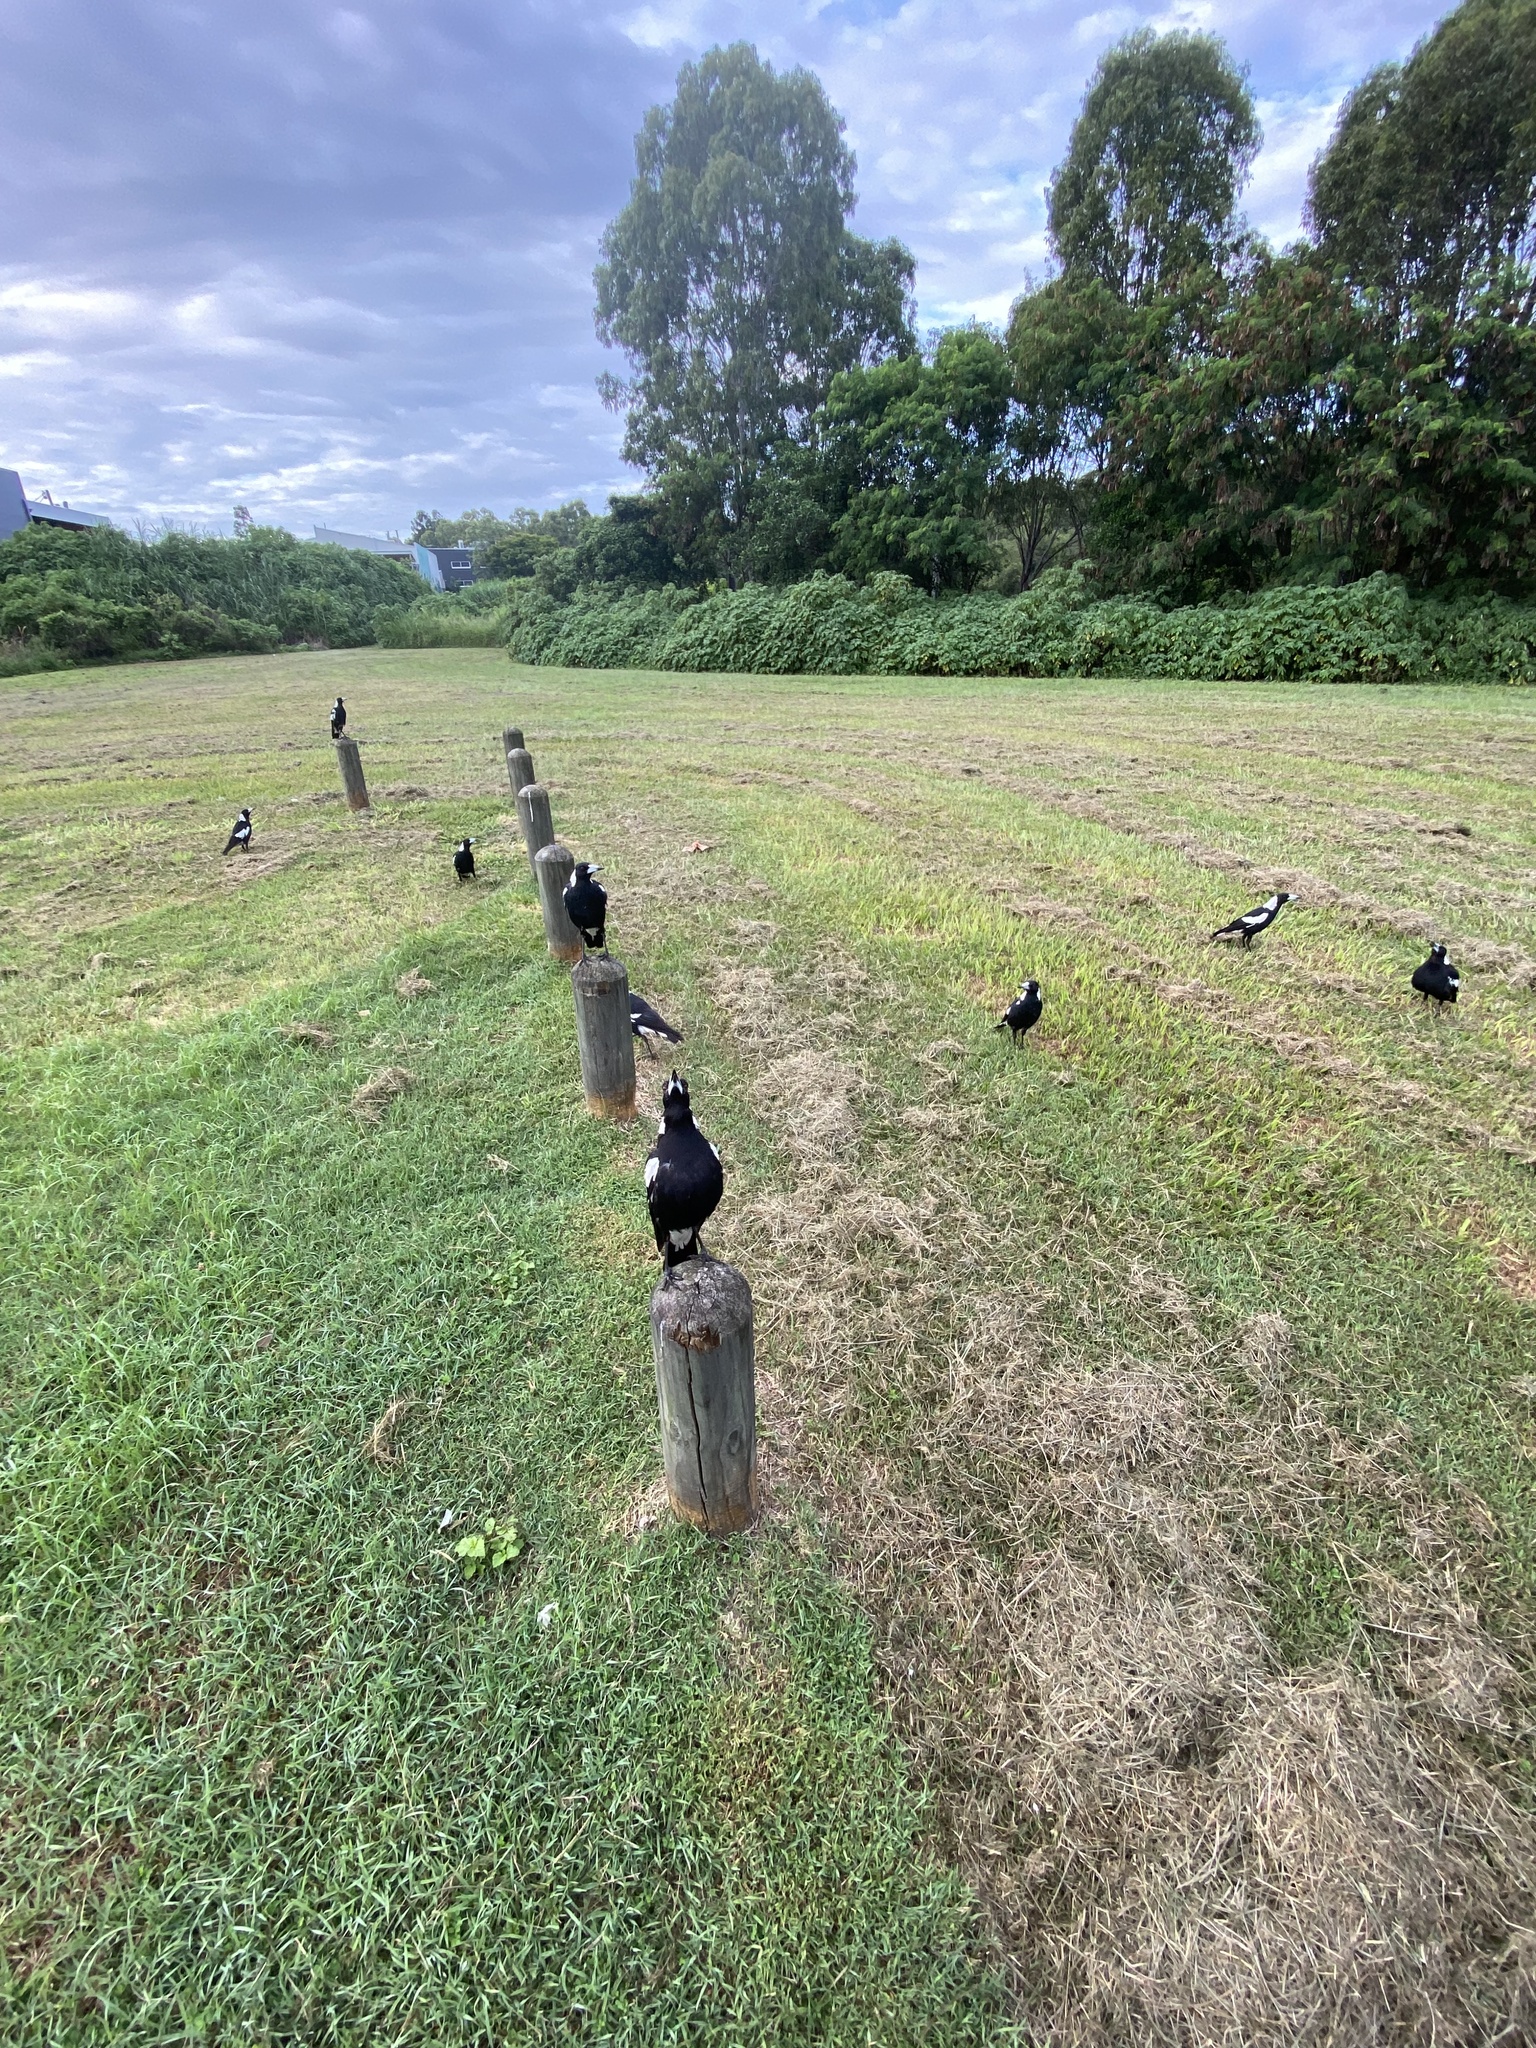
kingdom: Animalia
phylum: Chordata
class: Aves
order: Passeriformes
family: Cracticidae
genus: Gymnorhina
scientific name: Gymnorhina tibicen
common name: Australian magpie
